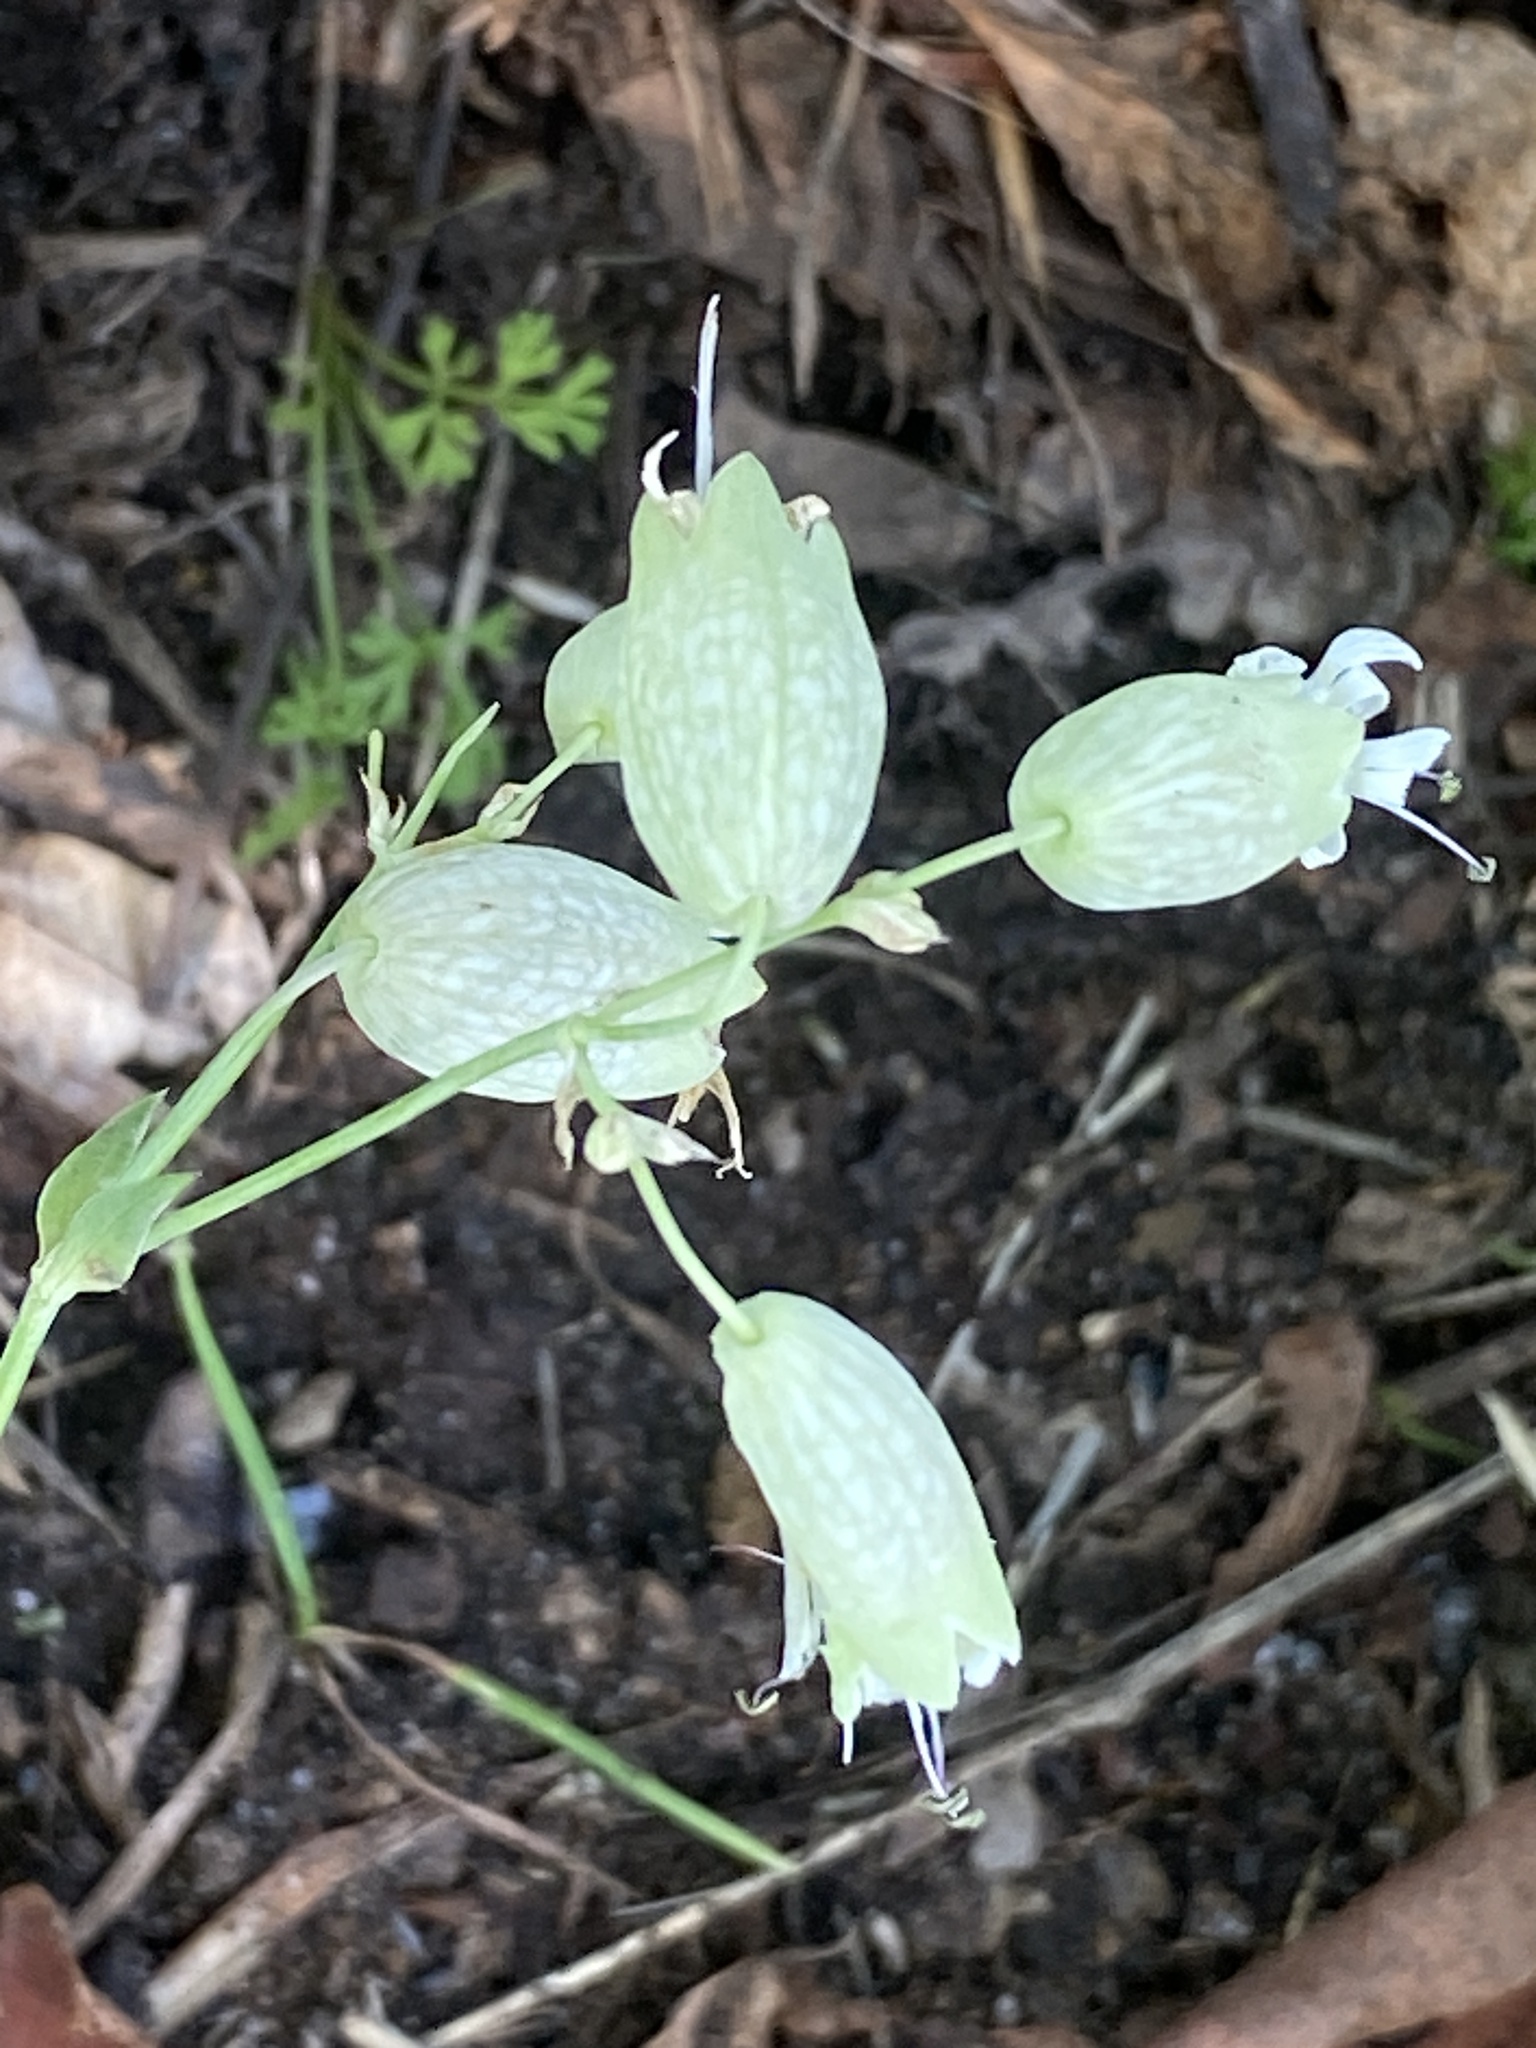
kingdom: Plantae
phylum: Tracheophyta
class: Magnoliopsida
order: Caryophyllales
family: Caryophyllaceae
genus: Silene
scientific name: Silene vulgaris
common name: Bladder campion
